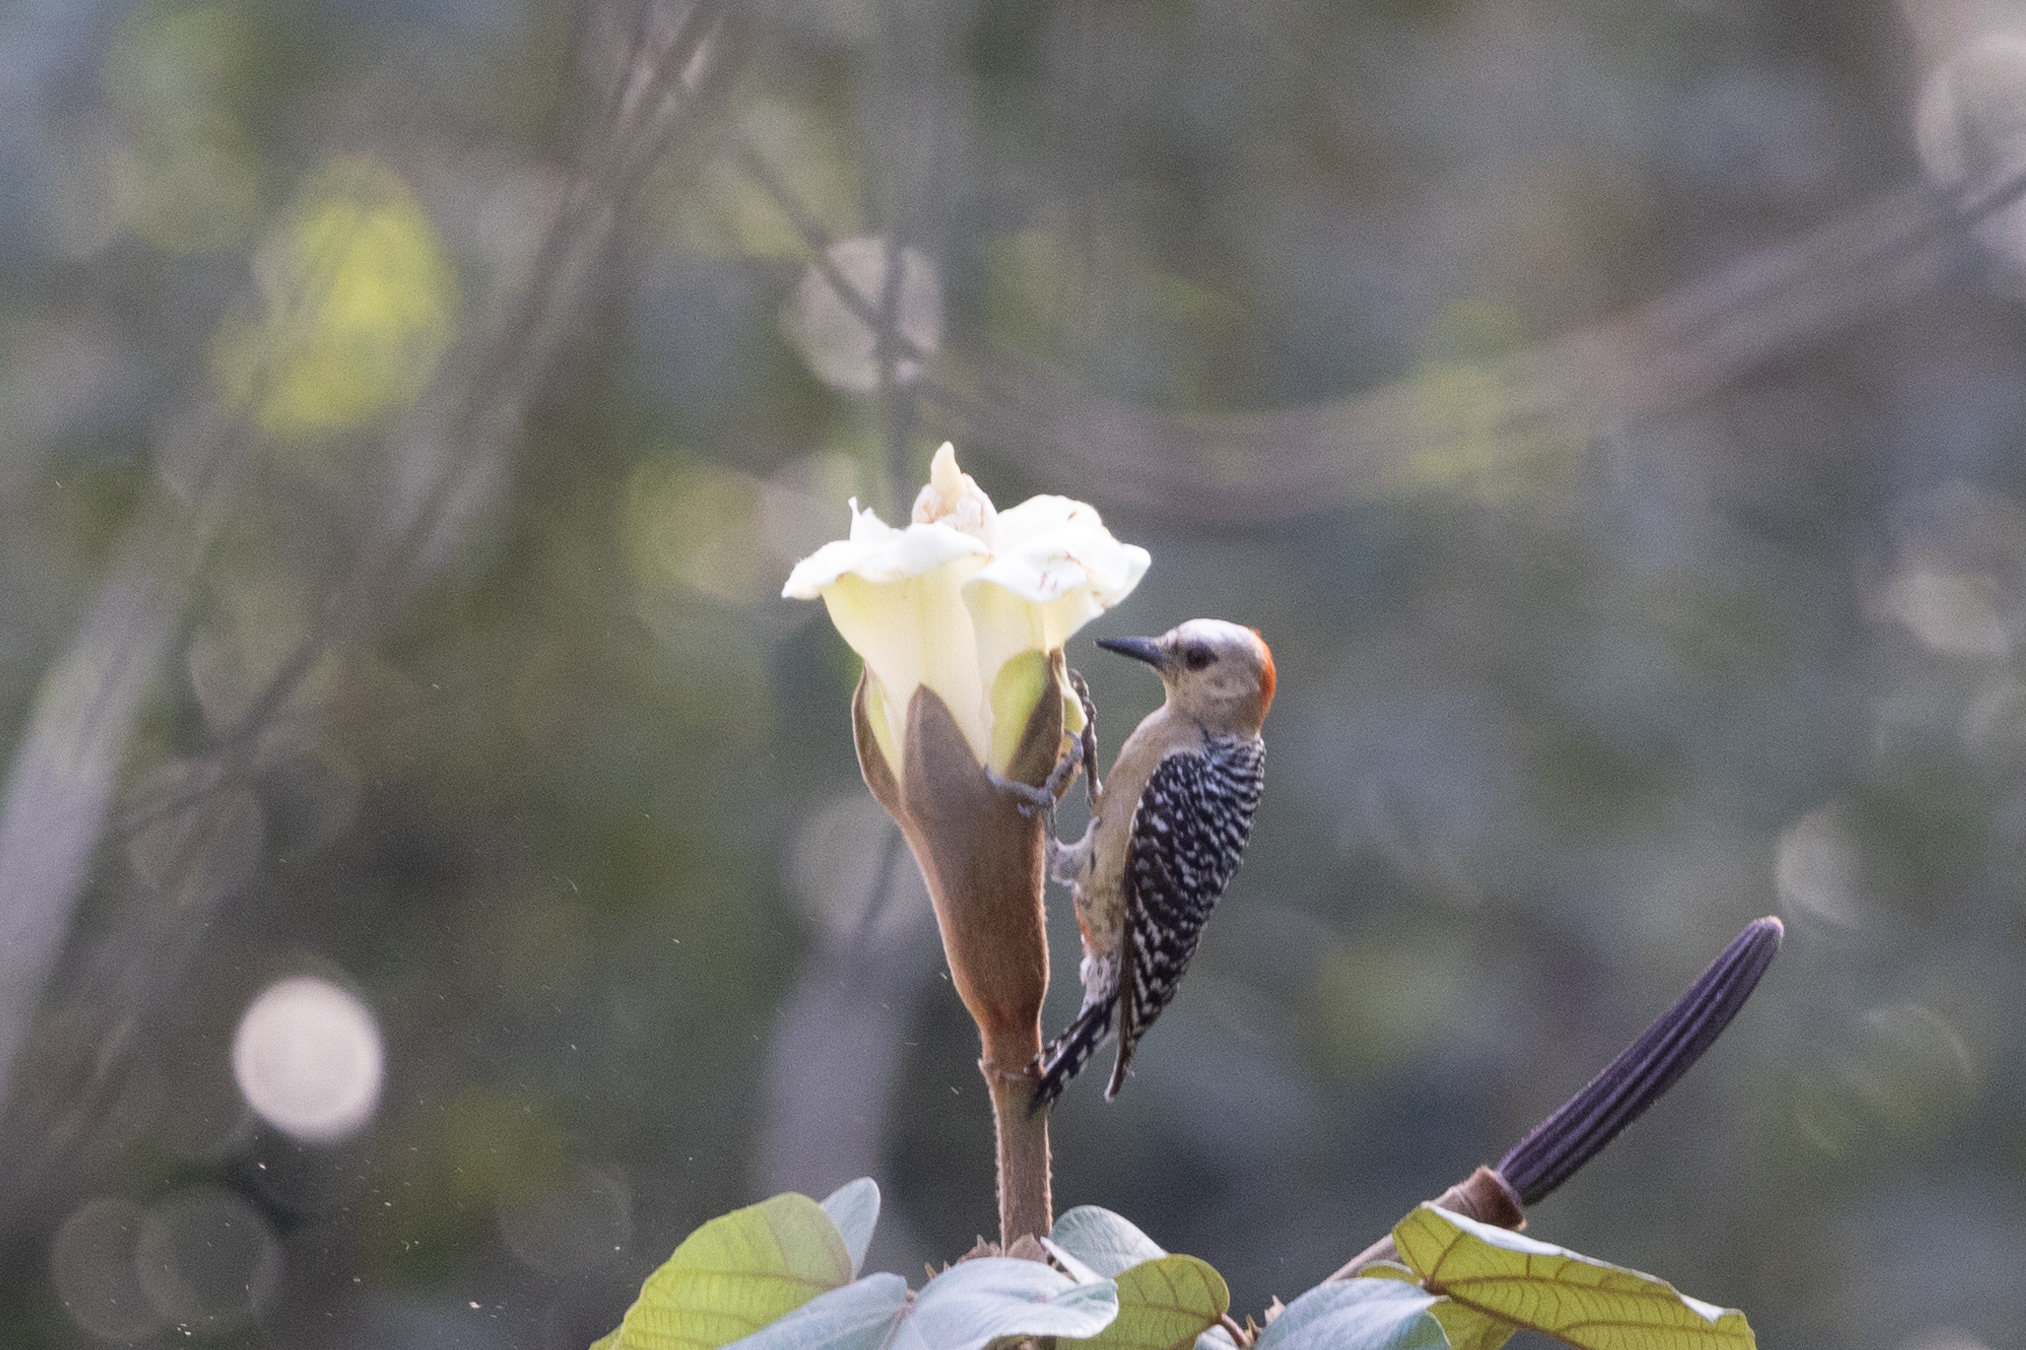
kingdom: Animalia
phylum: Chordata
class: Aves
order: Piciformes
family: Picidae
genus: Melanerpes
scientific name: Melanerpes rubricapillus
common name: Red-crowned woodpecker
